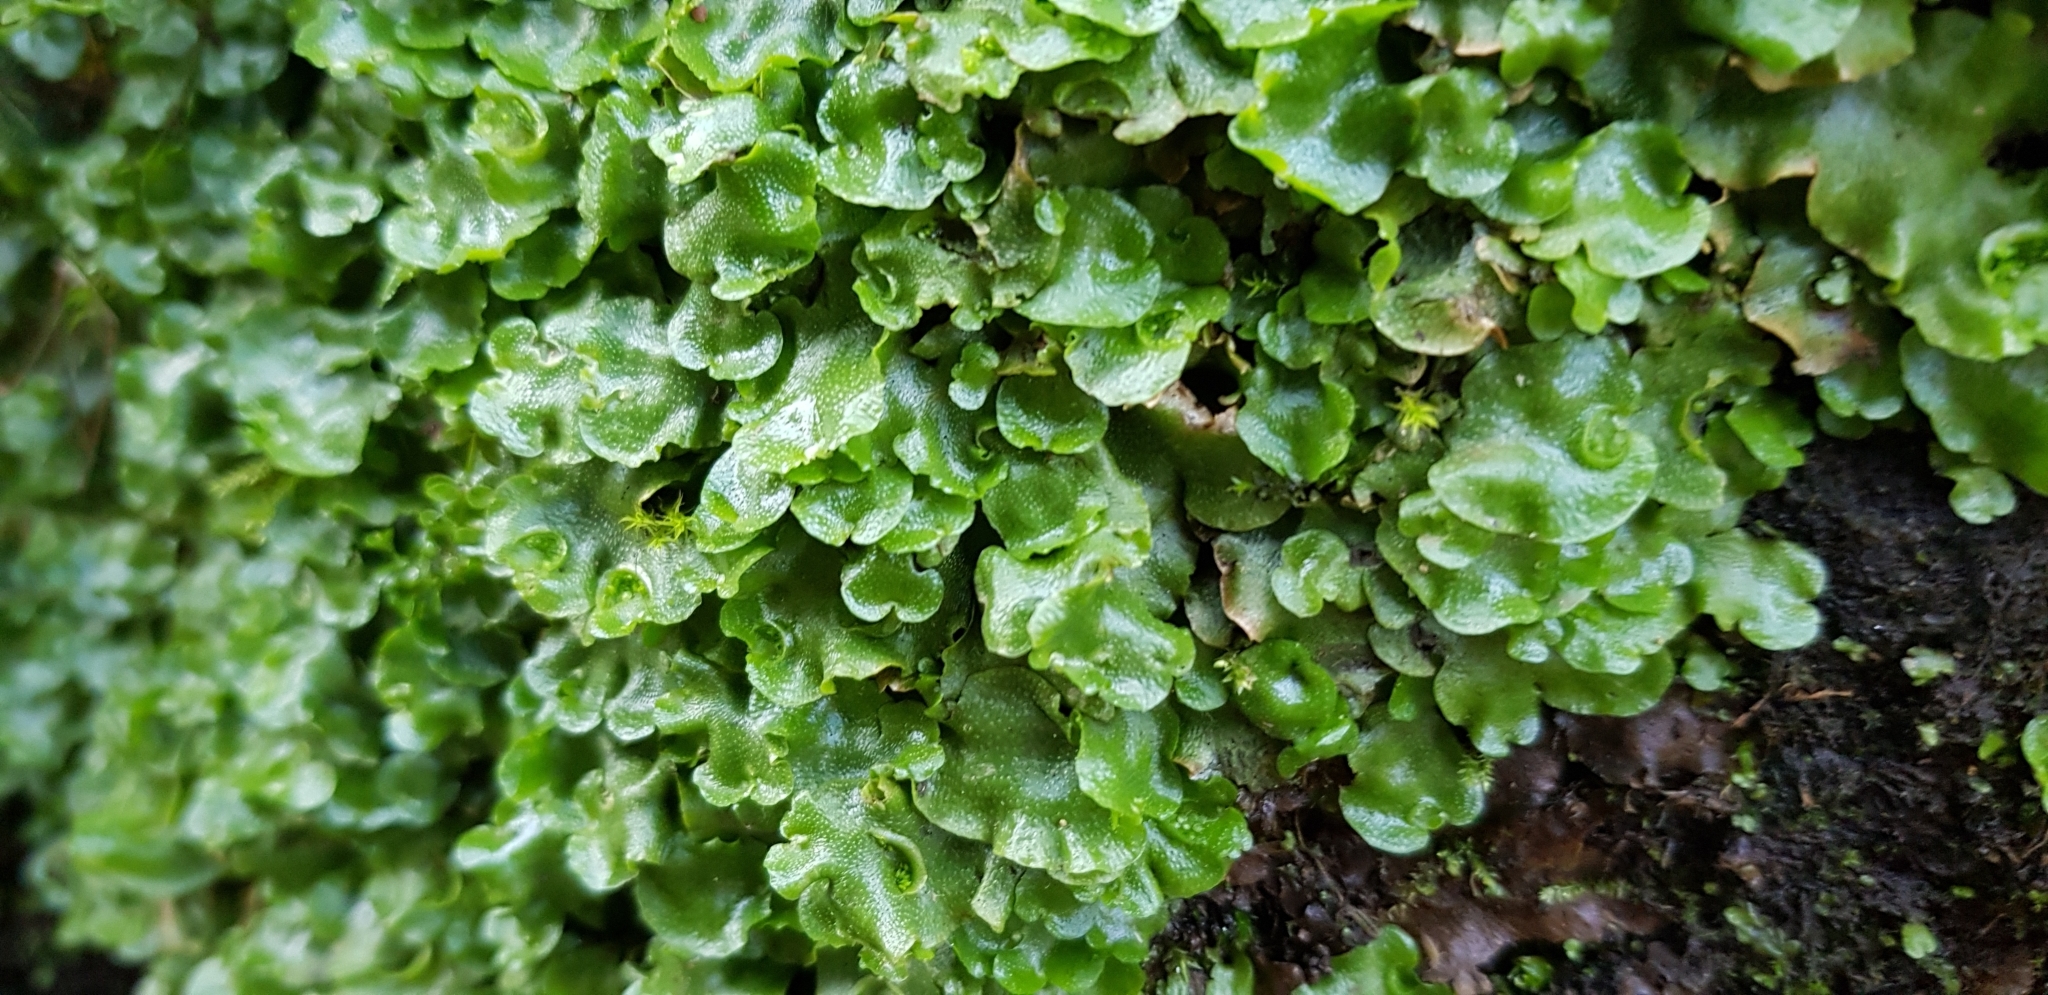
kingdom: Plantae
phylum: Marchantiophyta
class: Marchantiopsida
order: Lunulariales
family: Lunulariaceae
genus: Lunularia
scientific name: Lunularia cruciata
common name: Crescent-cup liverwort
